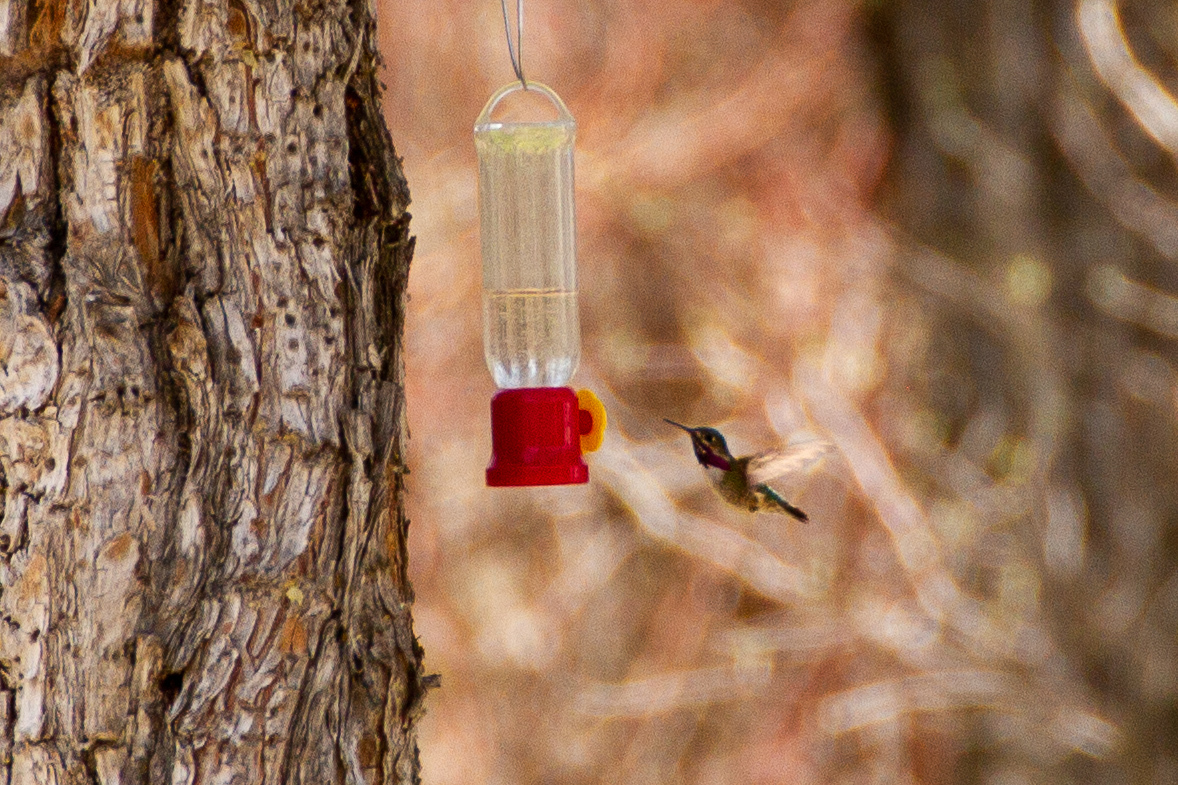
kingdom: Animalia
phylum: Chordata
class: Aves
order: Apodiformes
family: Trochilidae
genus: Selasphorus
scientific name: Selasphorus calliope
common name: Calliope hummingbird
